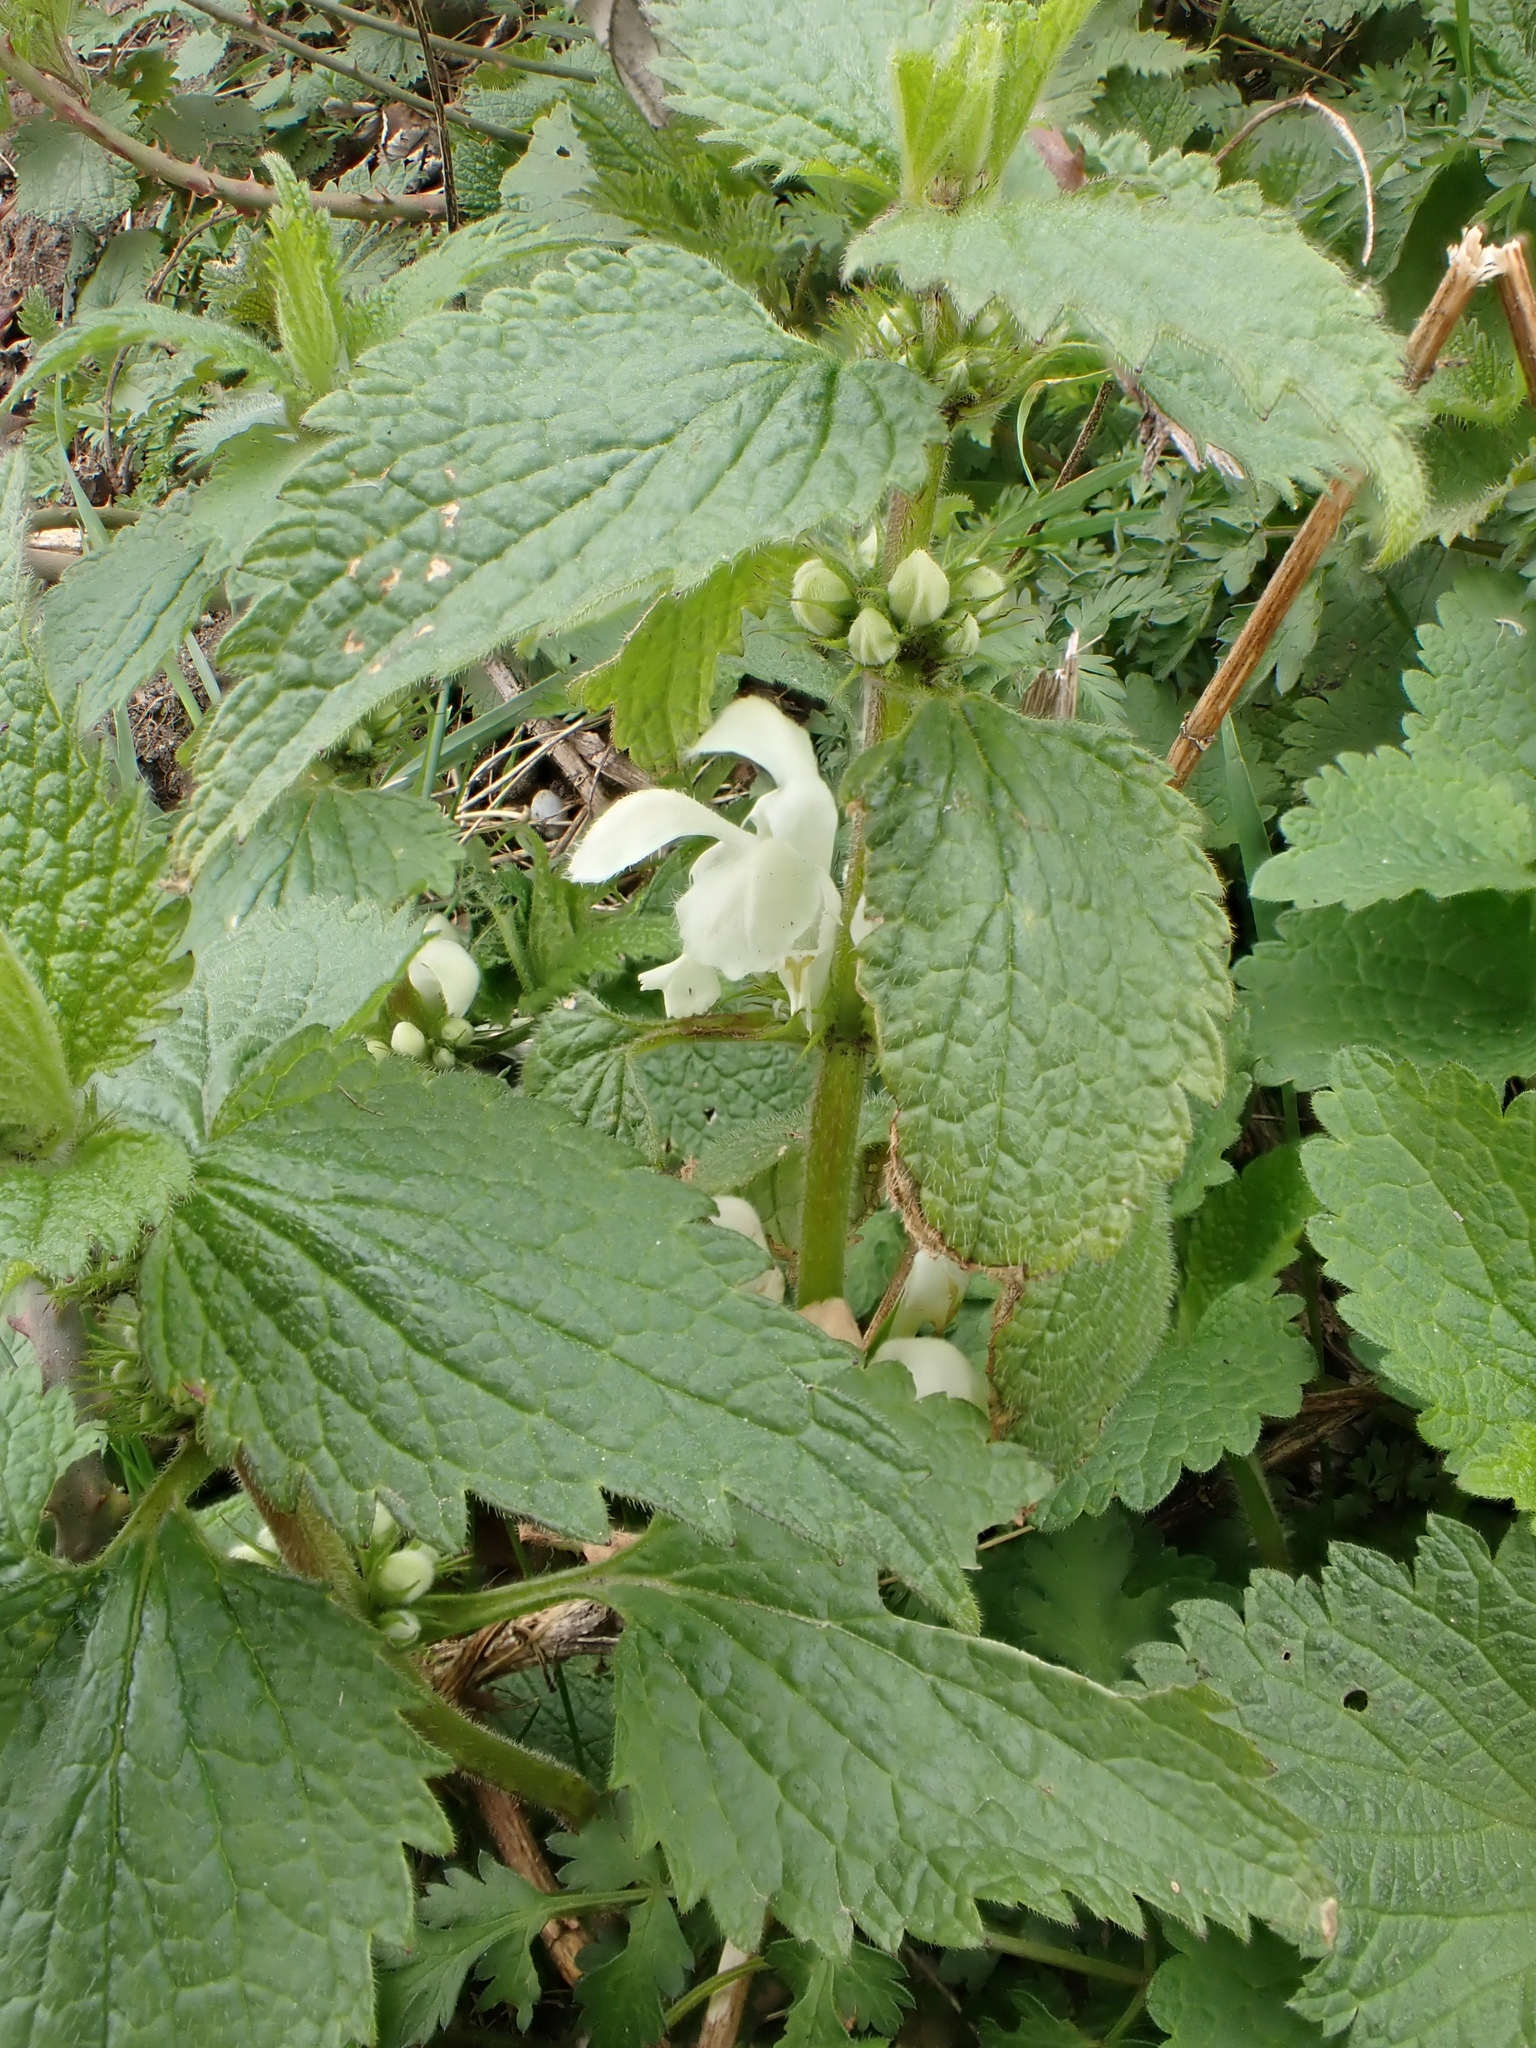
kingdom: Plantae
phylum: Tracheophyta
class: Magnoliopsida
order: Lamiales
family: Lamiaceae
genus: Lamium
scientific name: Lamium album
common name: White dead-nettle
